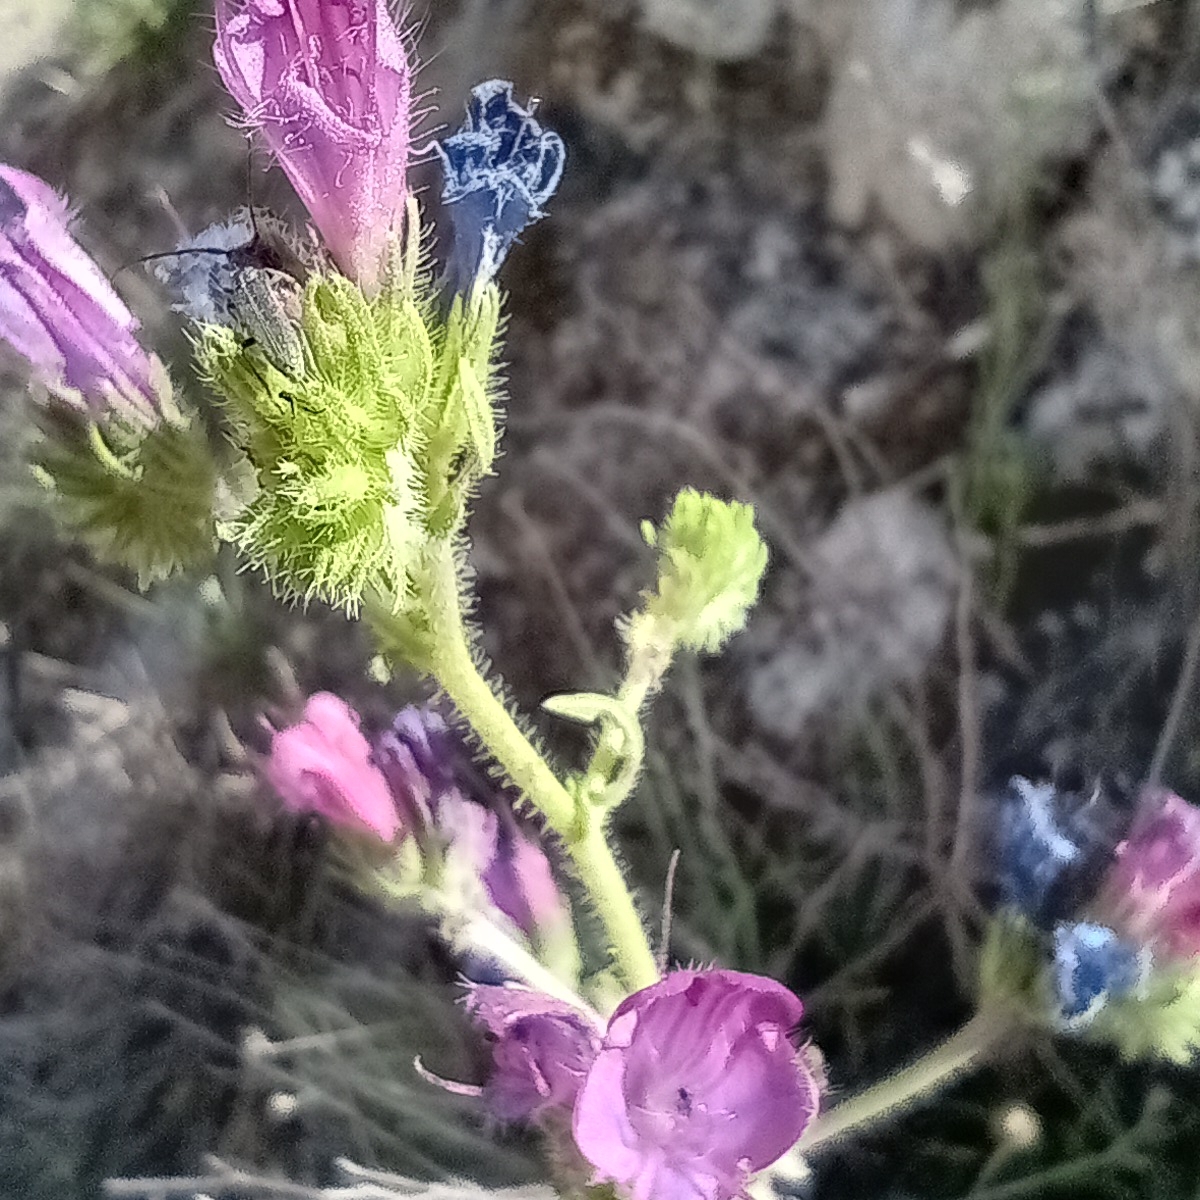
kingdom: Plantae
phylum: Tracheophyta
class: Magnoliopsida
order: Boraginales
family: Boraginaceae
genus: Echium
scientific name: Echium plantagineum
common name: Purple viper's-bugloss
